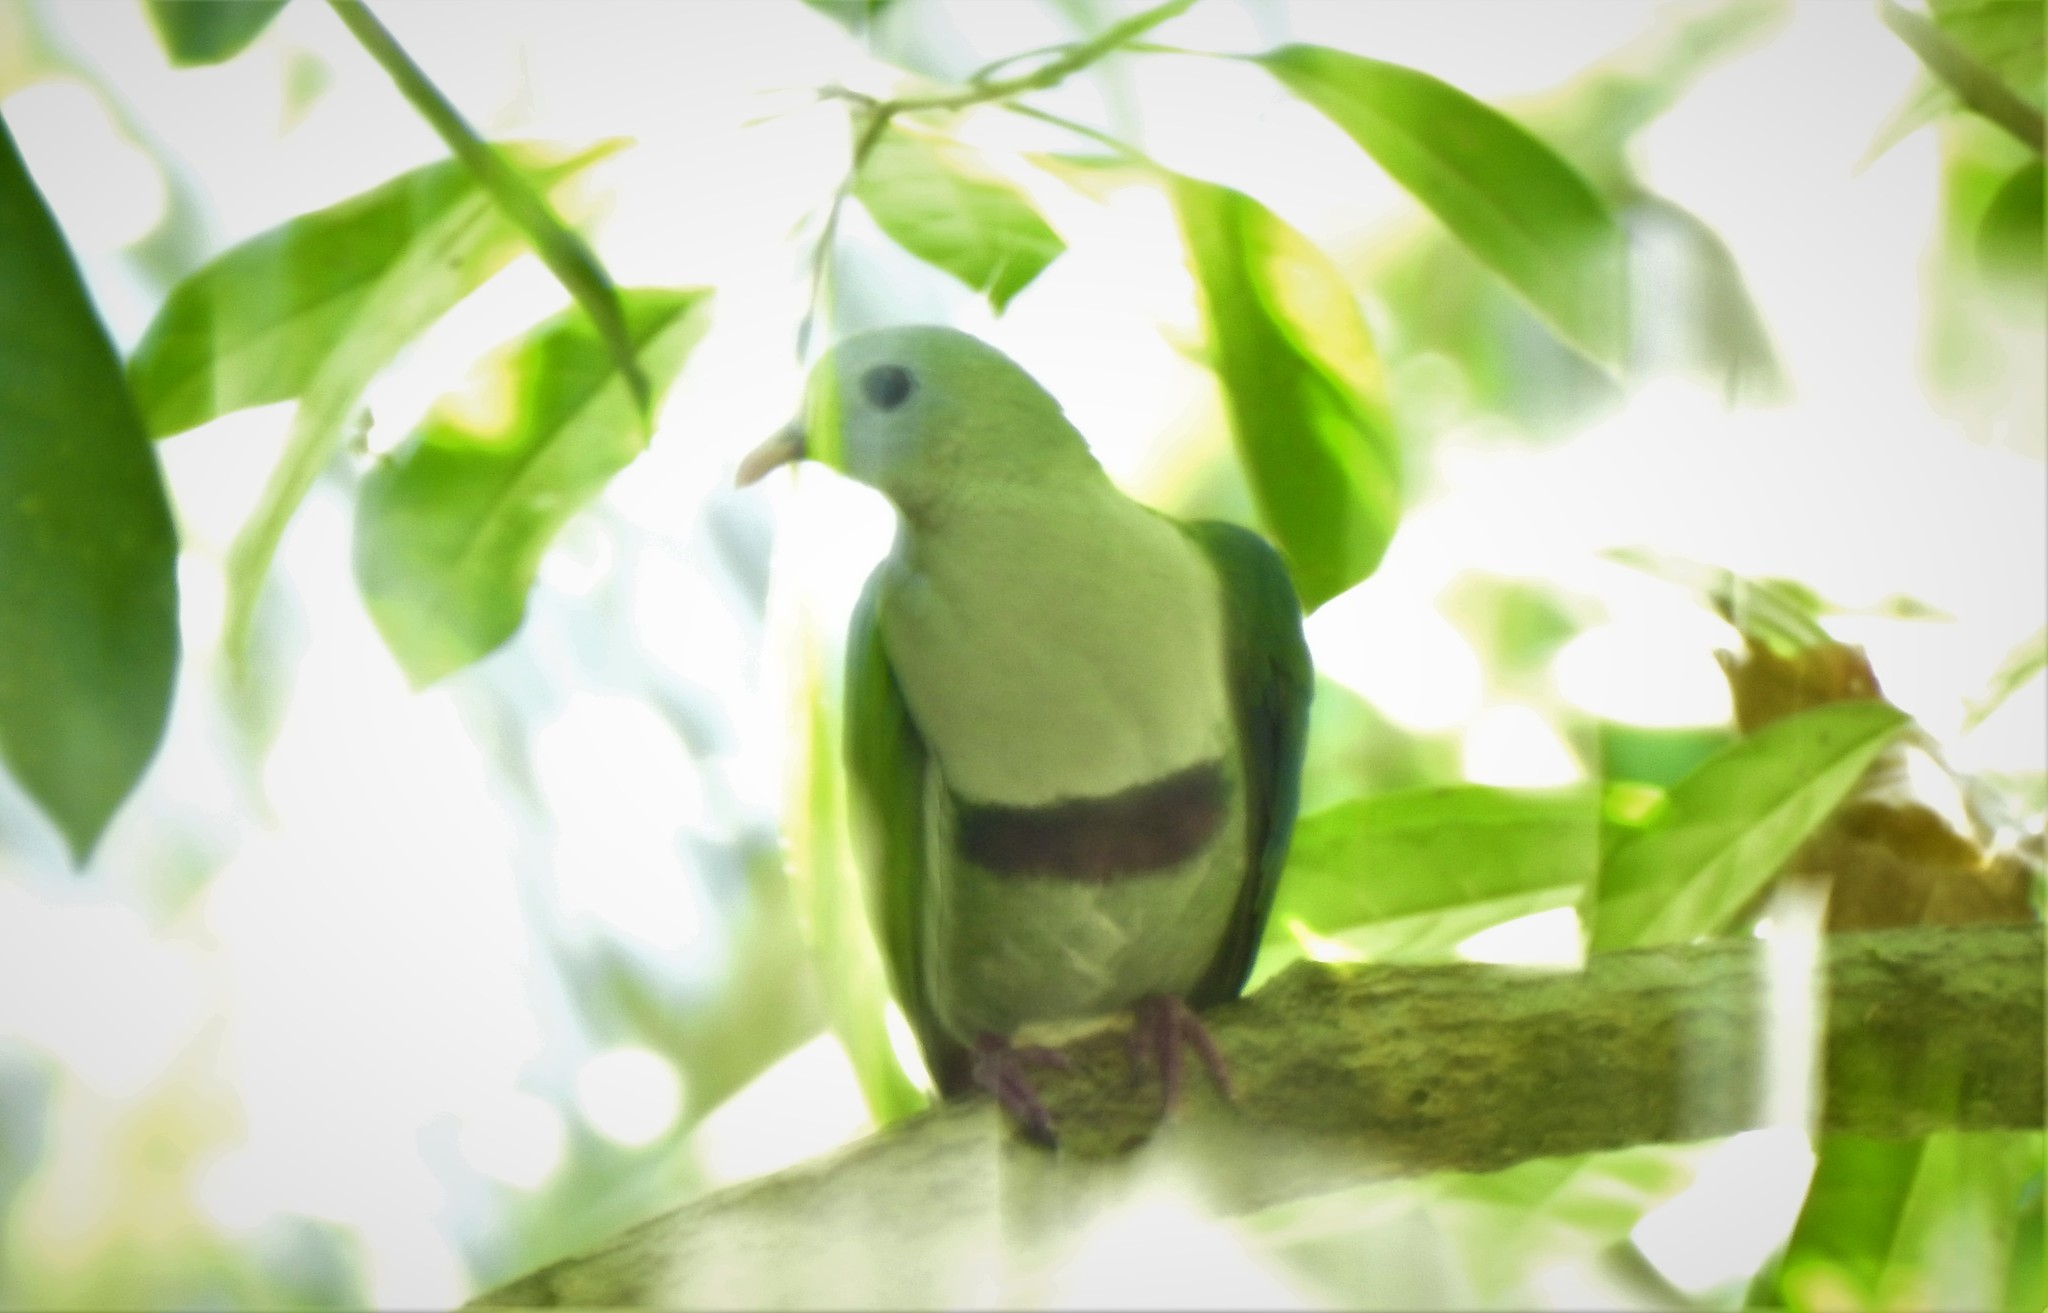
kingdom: Animalia
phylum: Chordata
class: Aves
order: Columbiformes
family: Columbidae
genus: Ptilinopus
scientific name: Ptilinopus leclancheri
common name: Black-chinned fruit dove
